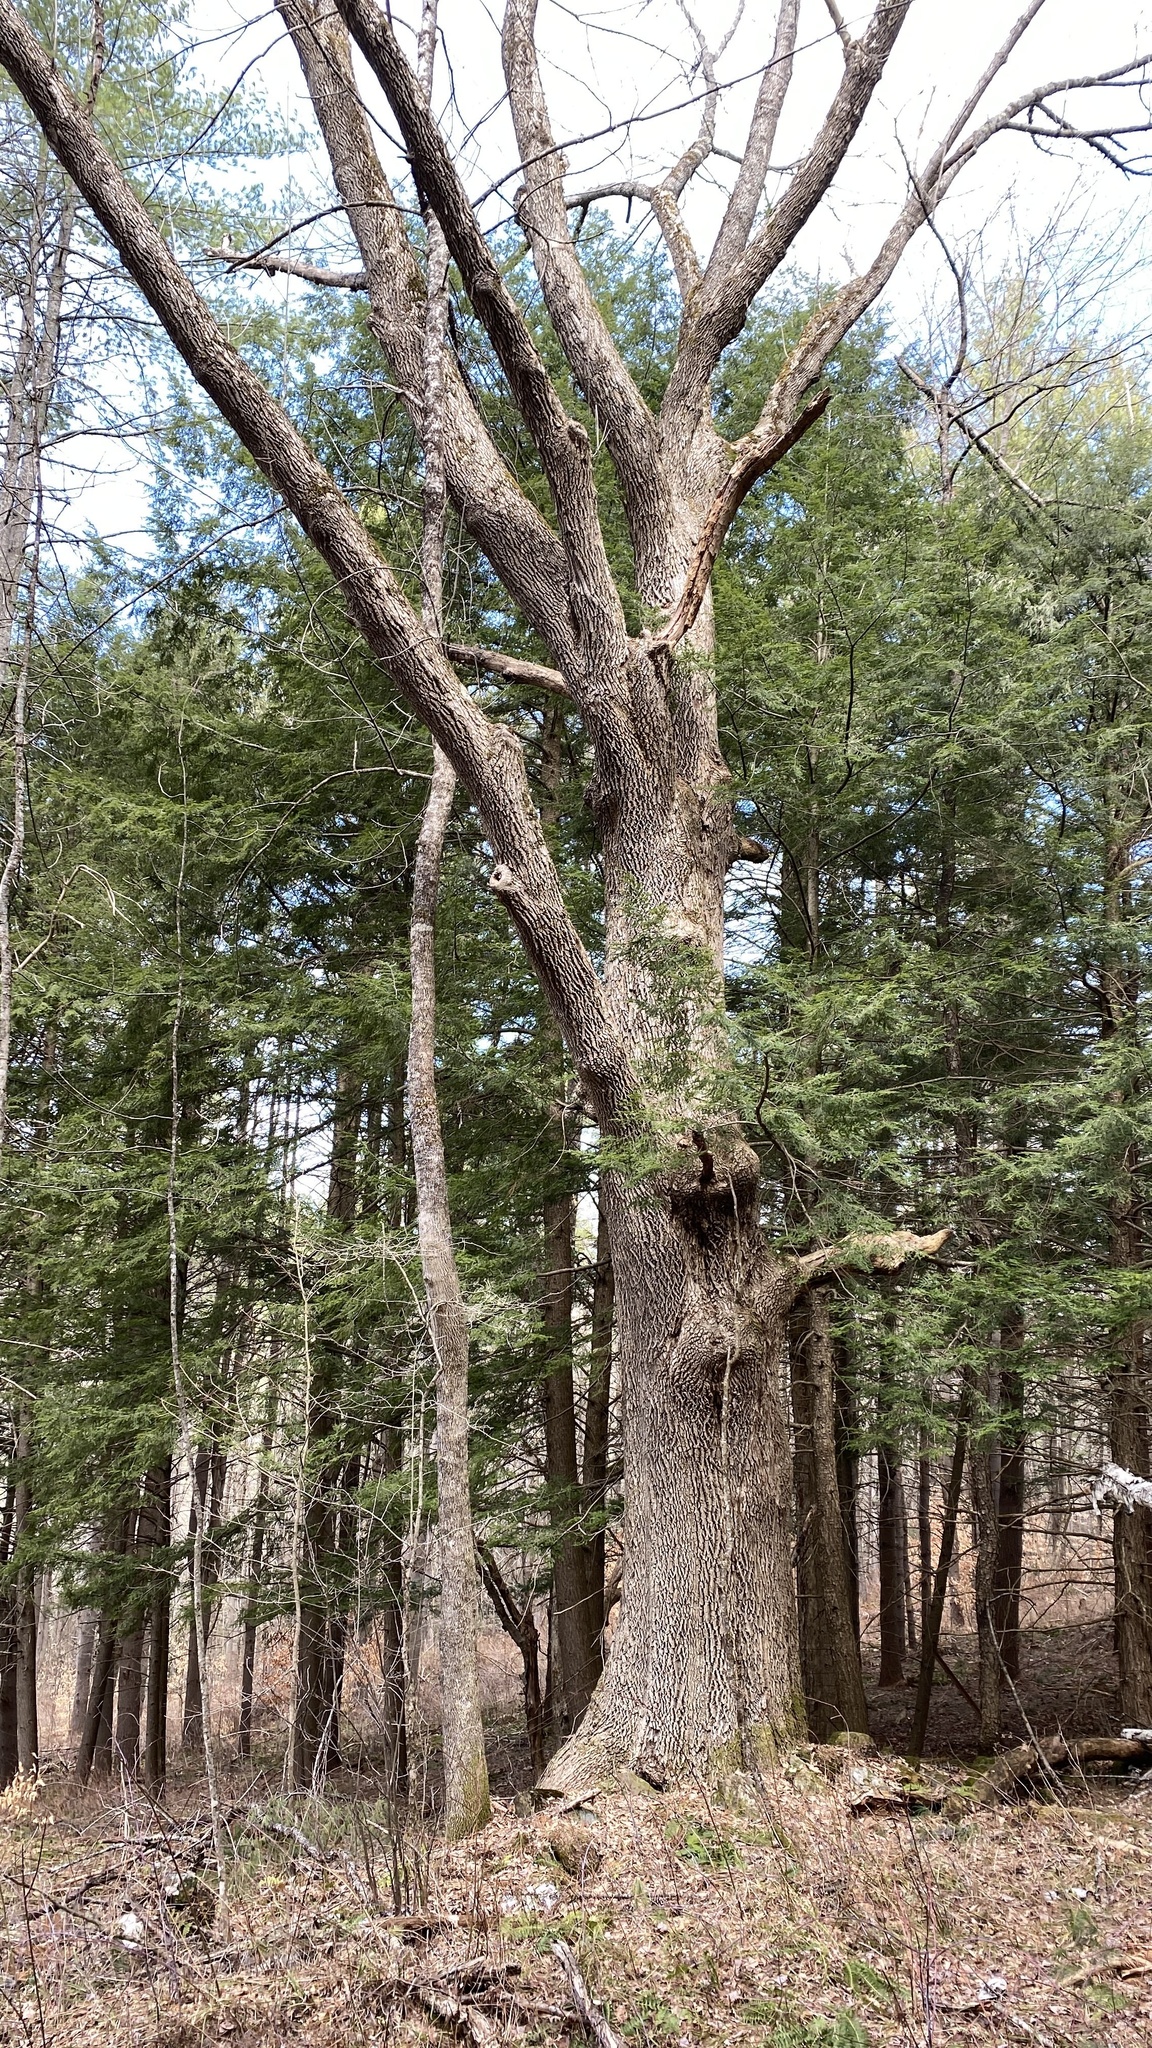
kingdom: Plantae
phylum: Tracheophyta
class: Magnoliopsida
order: Lamiales
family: Oleaceae
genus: Fraxinus
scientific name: Fraxinus americana
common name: White ash
